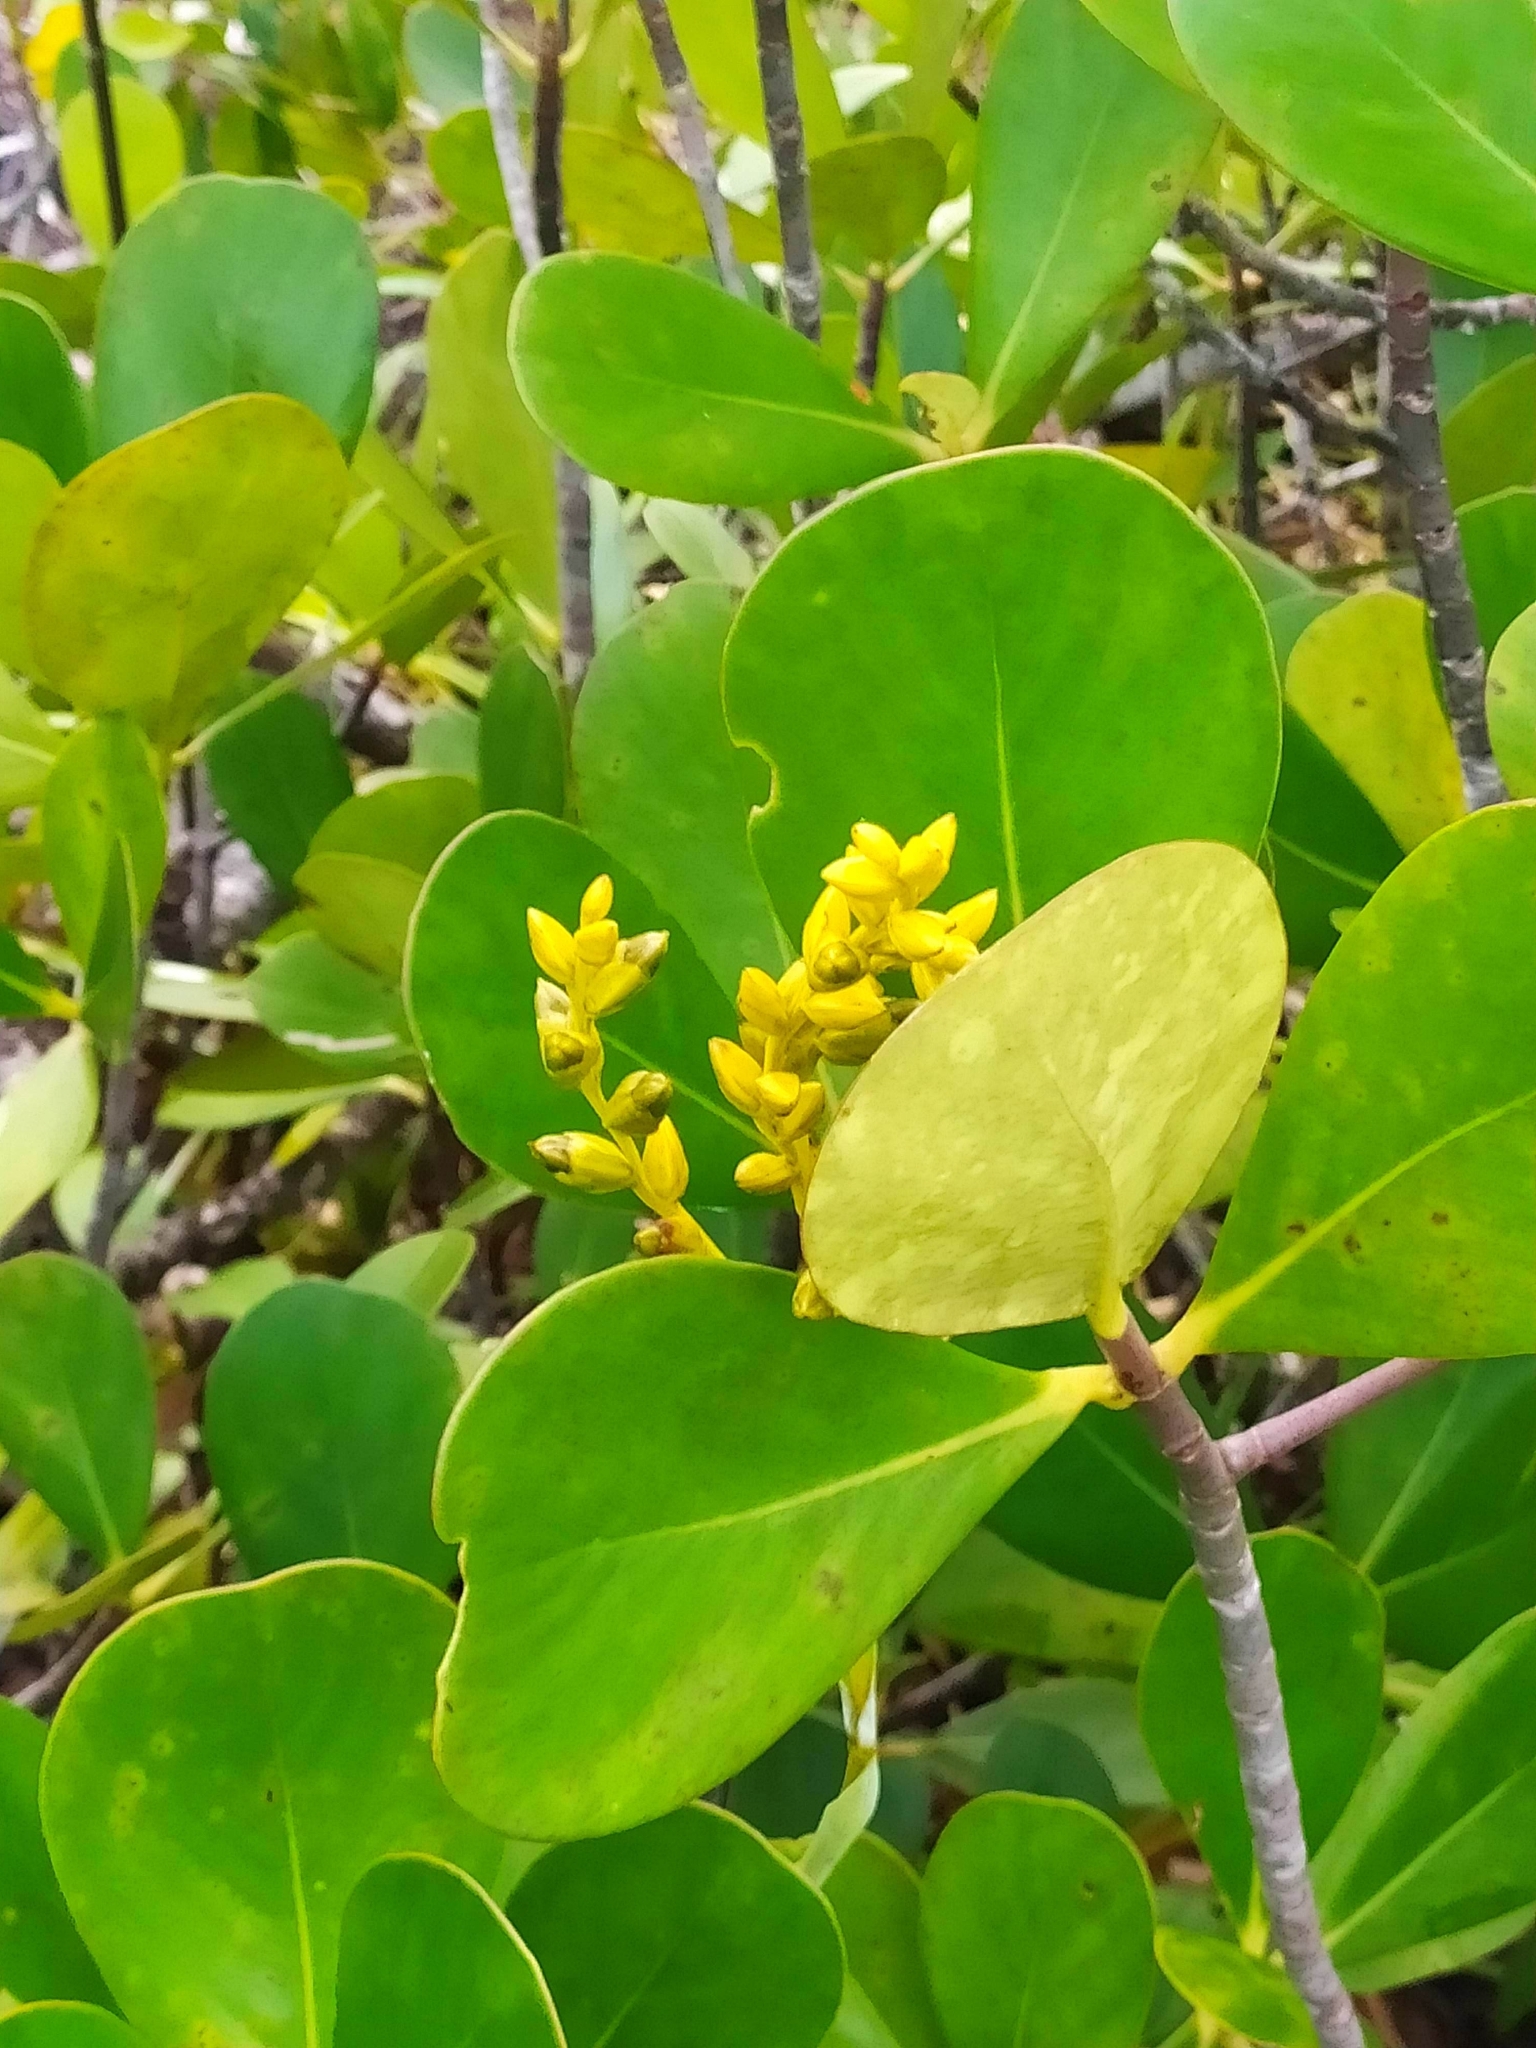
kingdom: Plantae
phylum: Tracheophyta
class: Liliopsida
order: Poales
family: Bromeliaceae
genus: Catopsis
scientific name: Catopsis berteroniana
